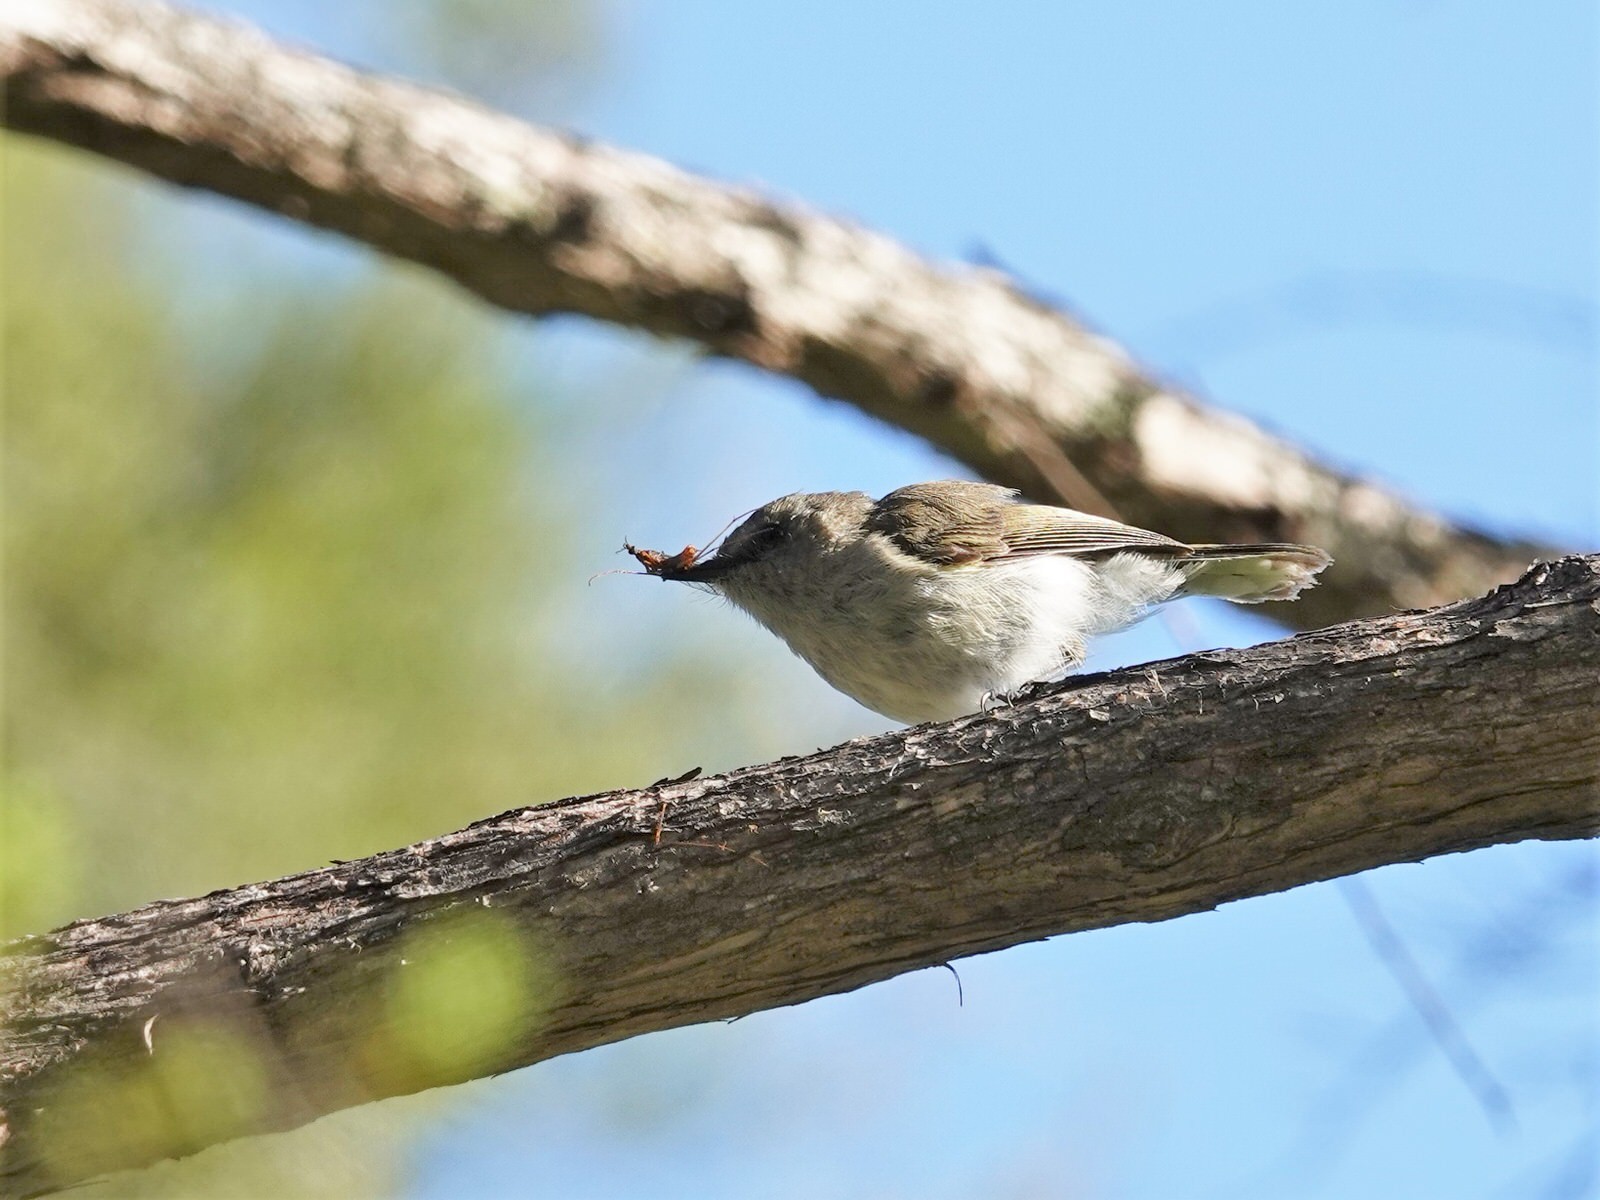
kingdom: Animalia
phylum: Chordata
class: Aves
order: Passeriformes
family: Acanthizidae
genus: Gerygone
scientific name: Gerygone igata
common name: Grey gerygone
